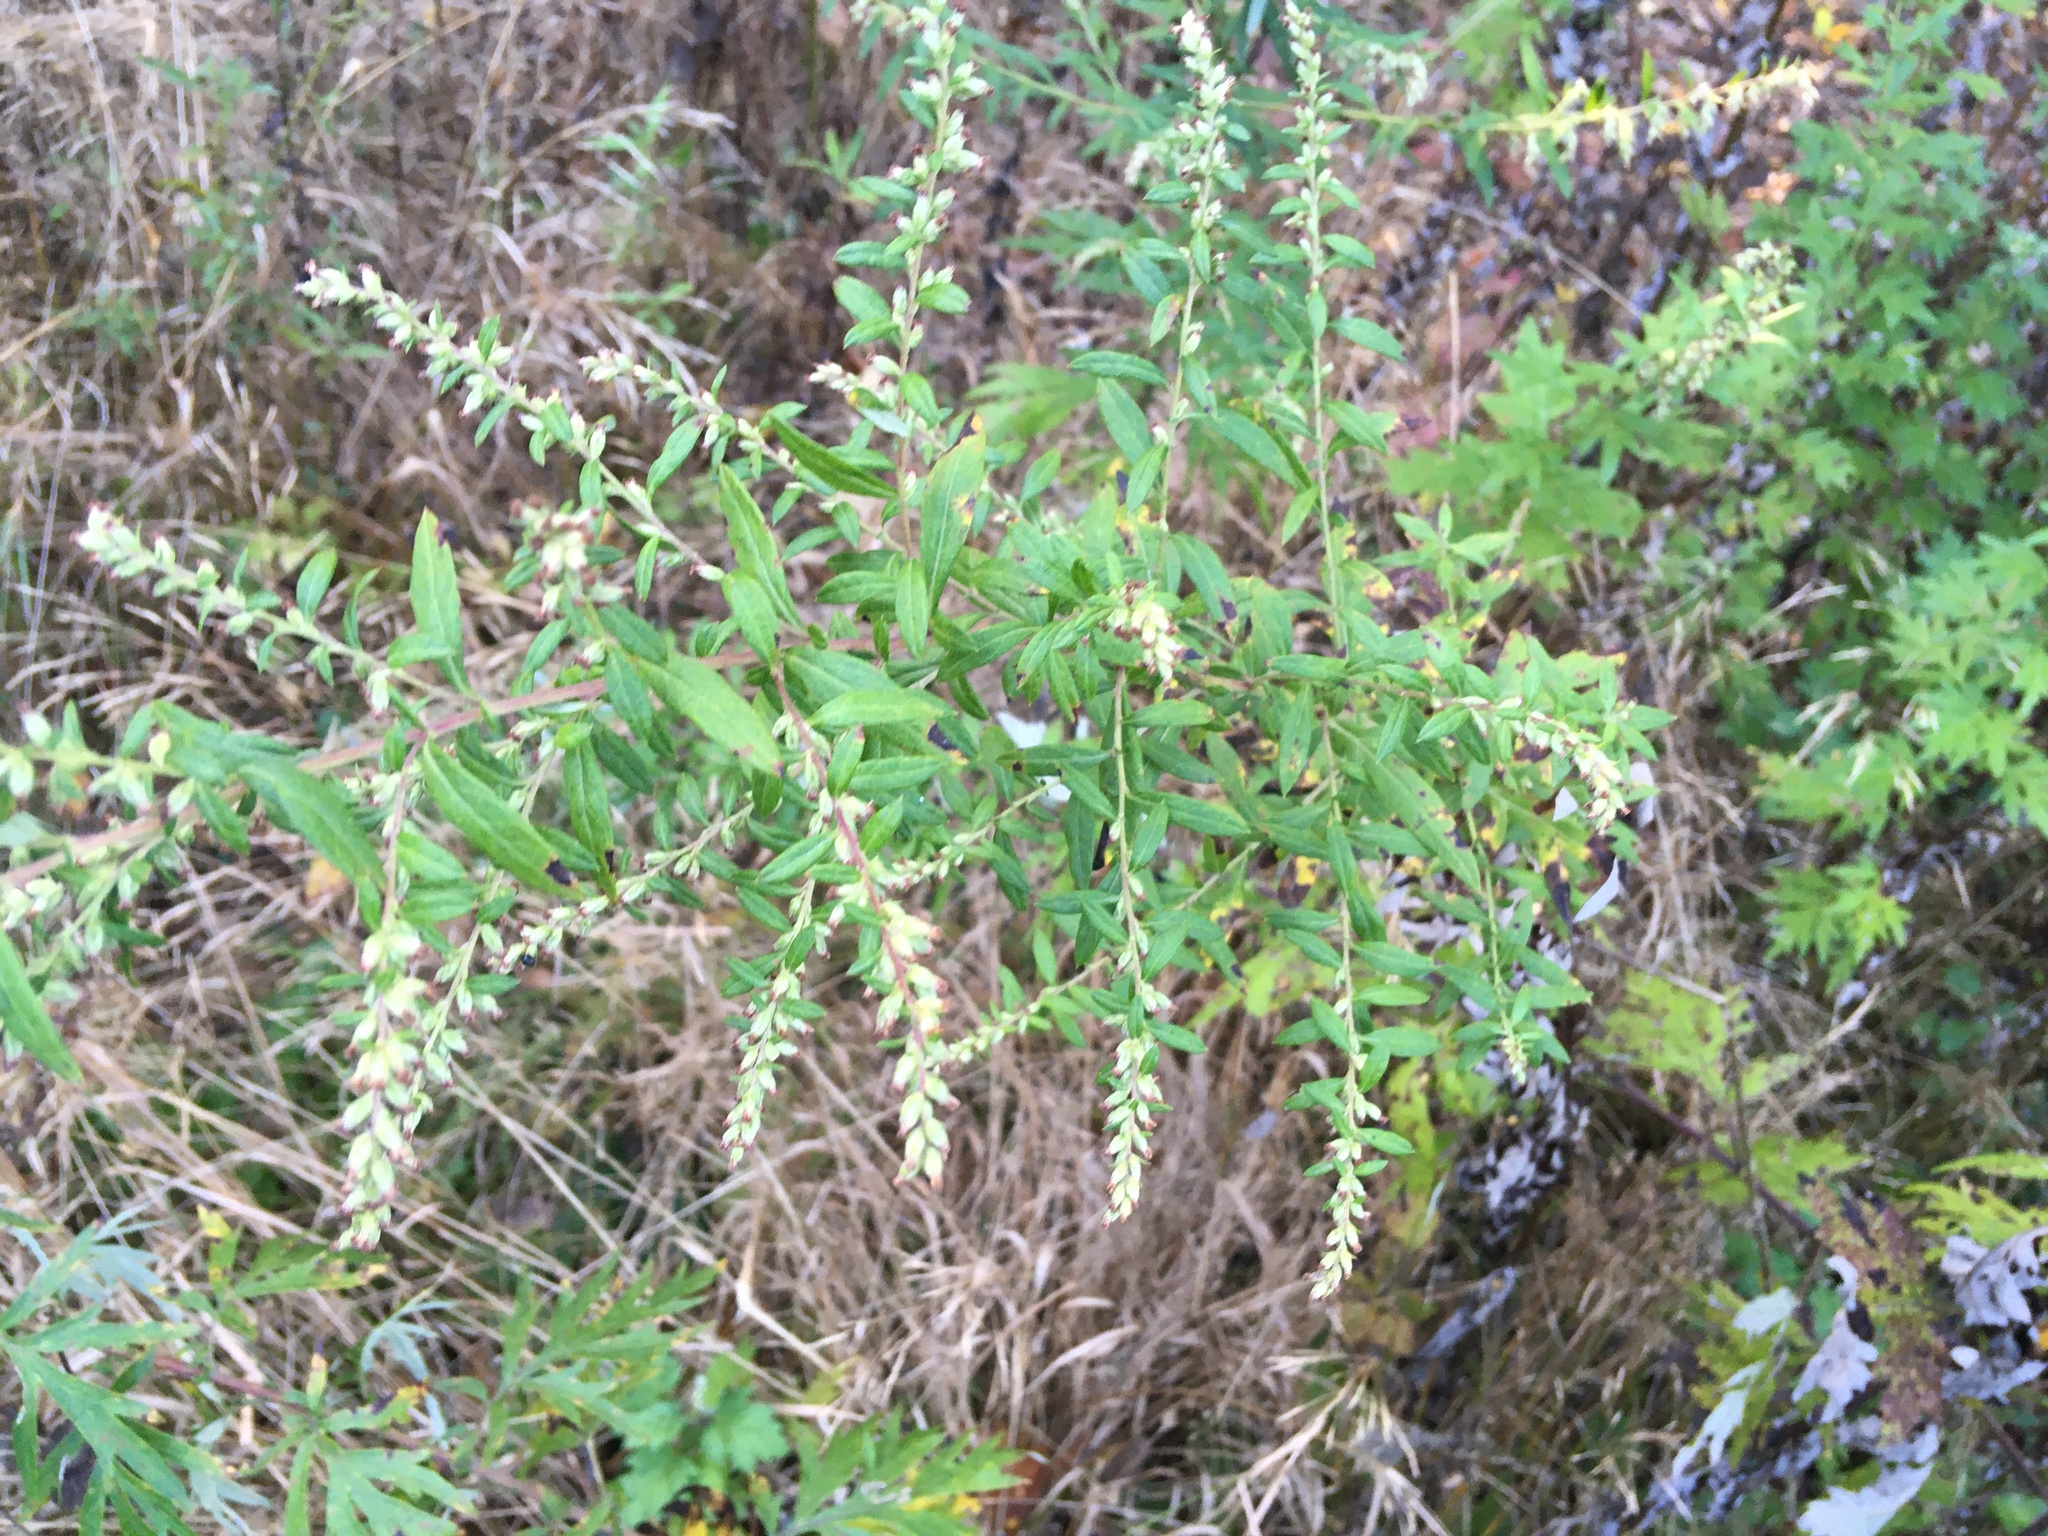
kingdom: Plantae
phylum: Tracheophyta
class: Magnoliopsida
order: Asterales
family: Asteraceae
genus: Artemisia
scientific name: Artemisia vulgaris
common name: Mugwort
